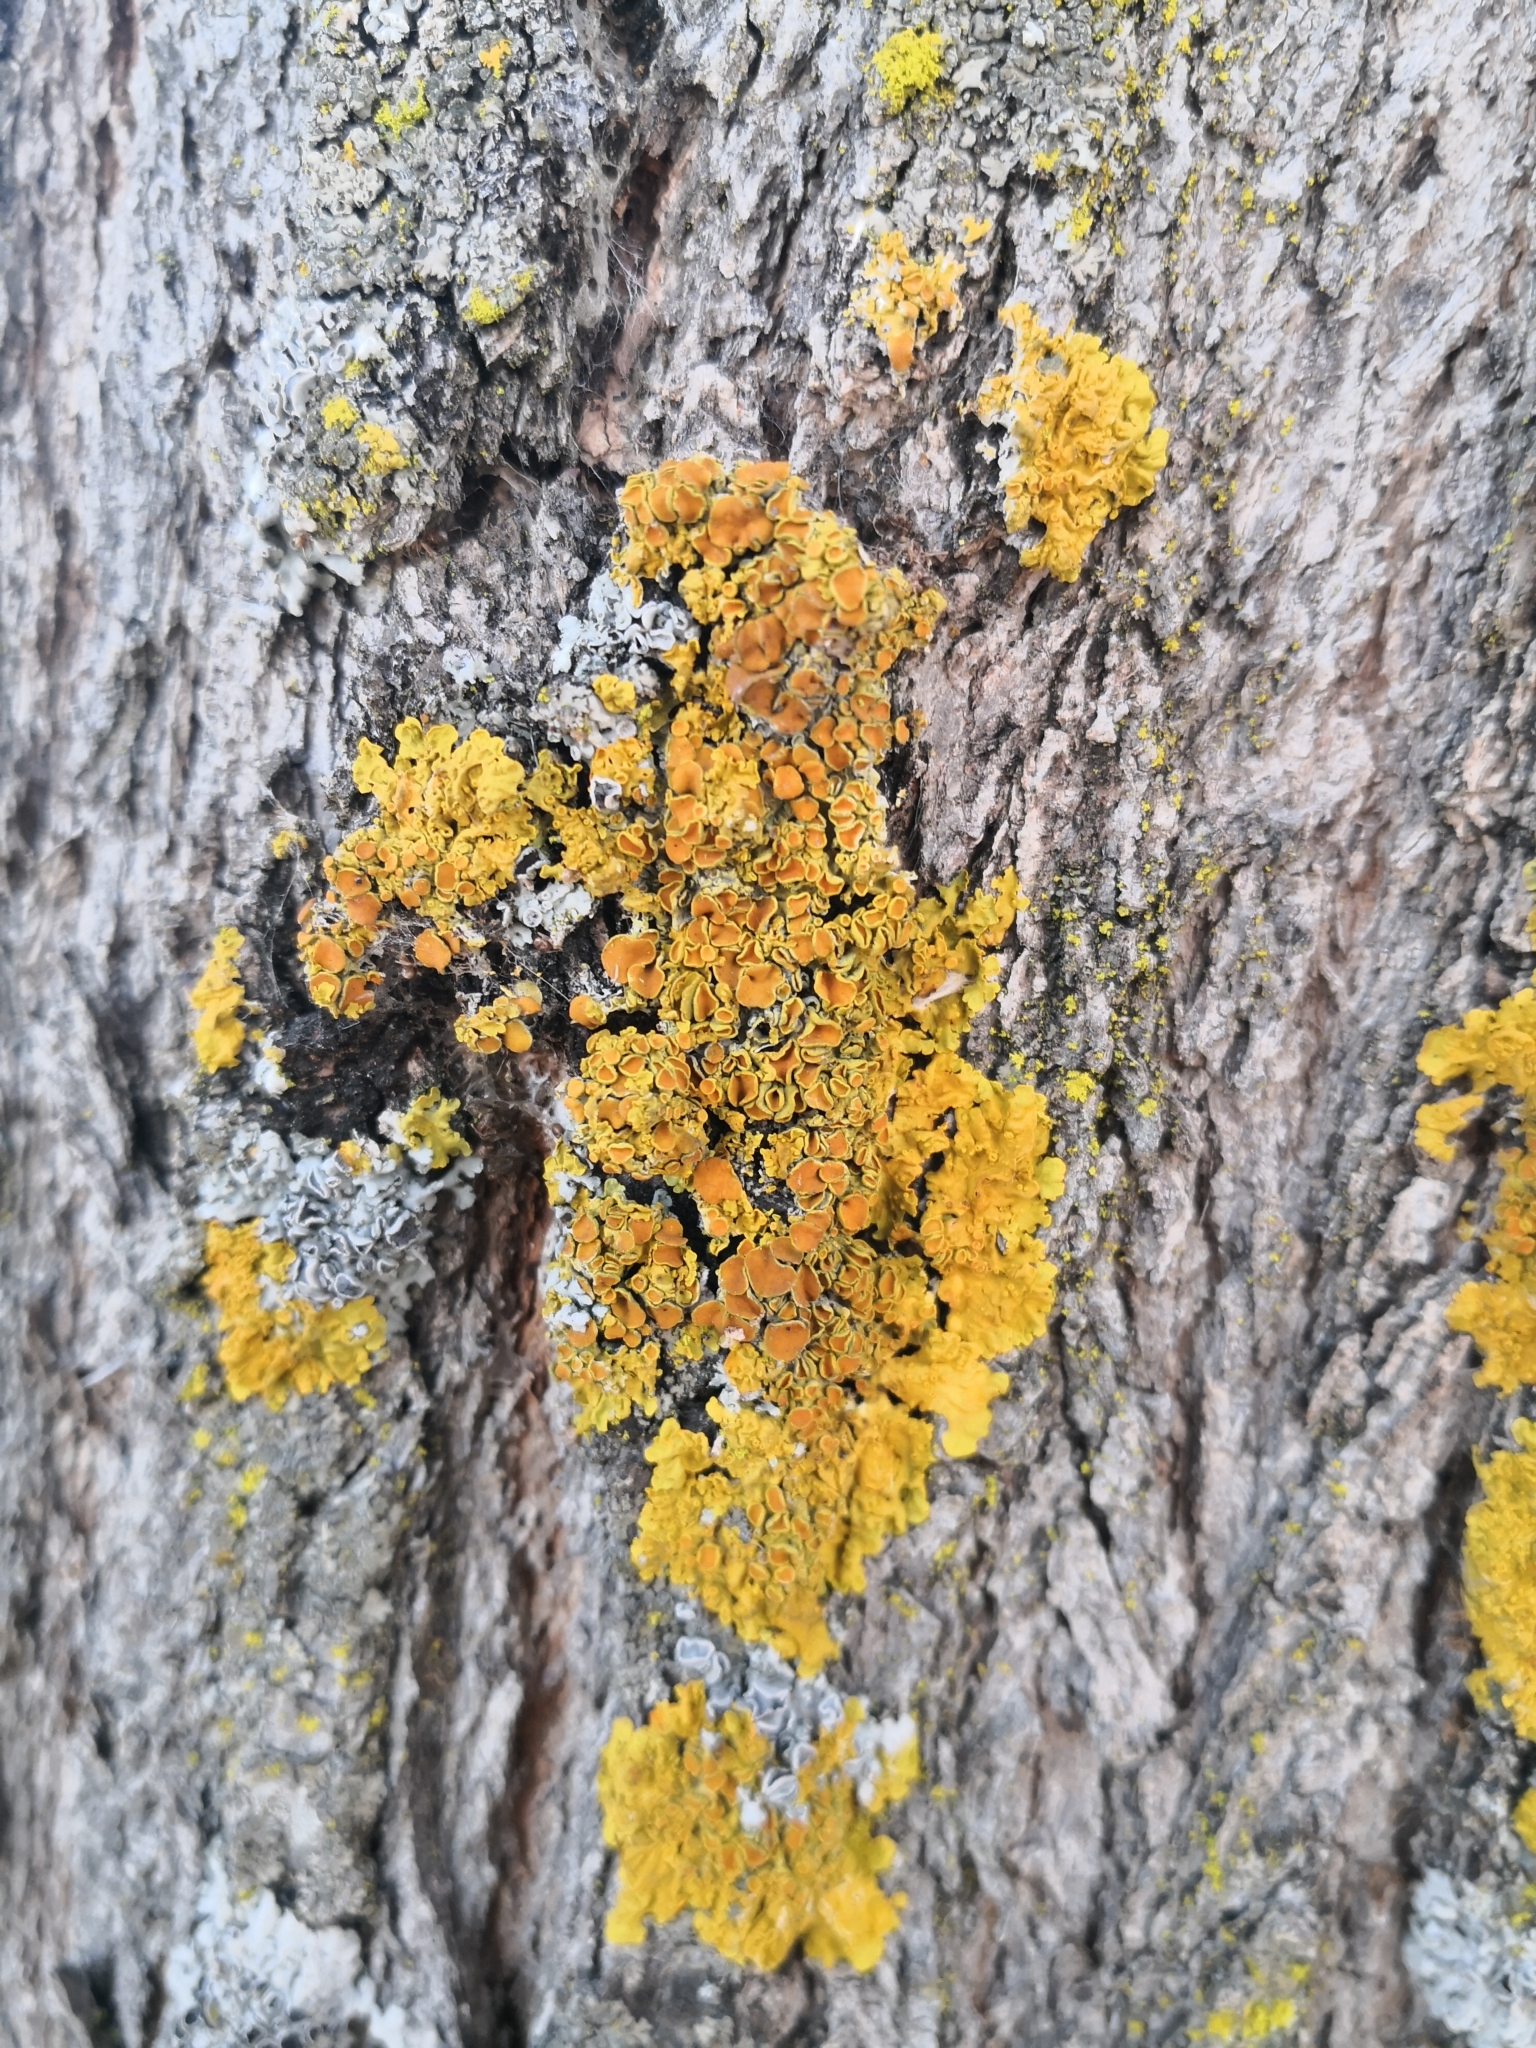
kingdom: Fungi
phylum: Ascomycota
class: Lecanoromycetes
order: Teloschistales
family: Teloschistaceae
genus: Xanthoria
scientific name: Xanthoria parietina
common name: Common orange lichen
